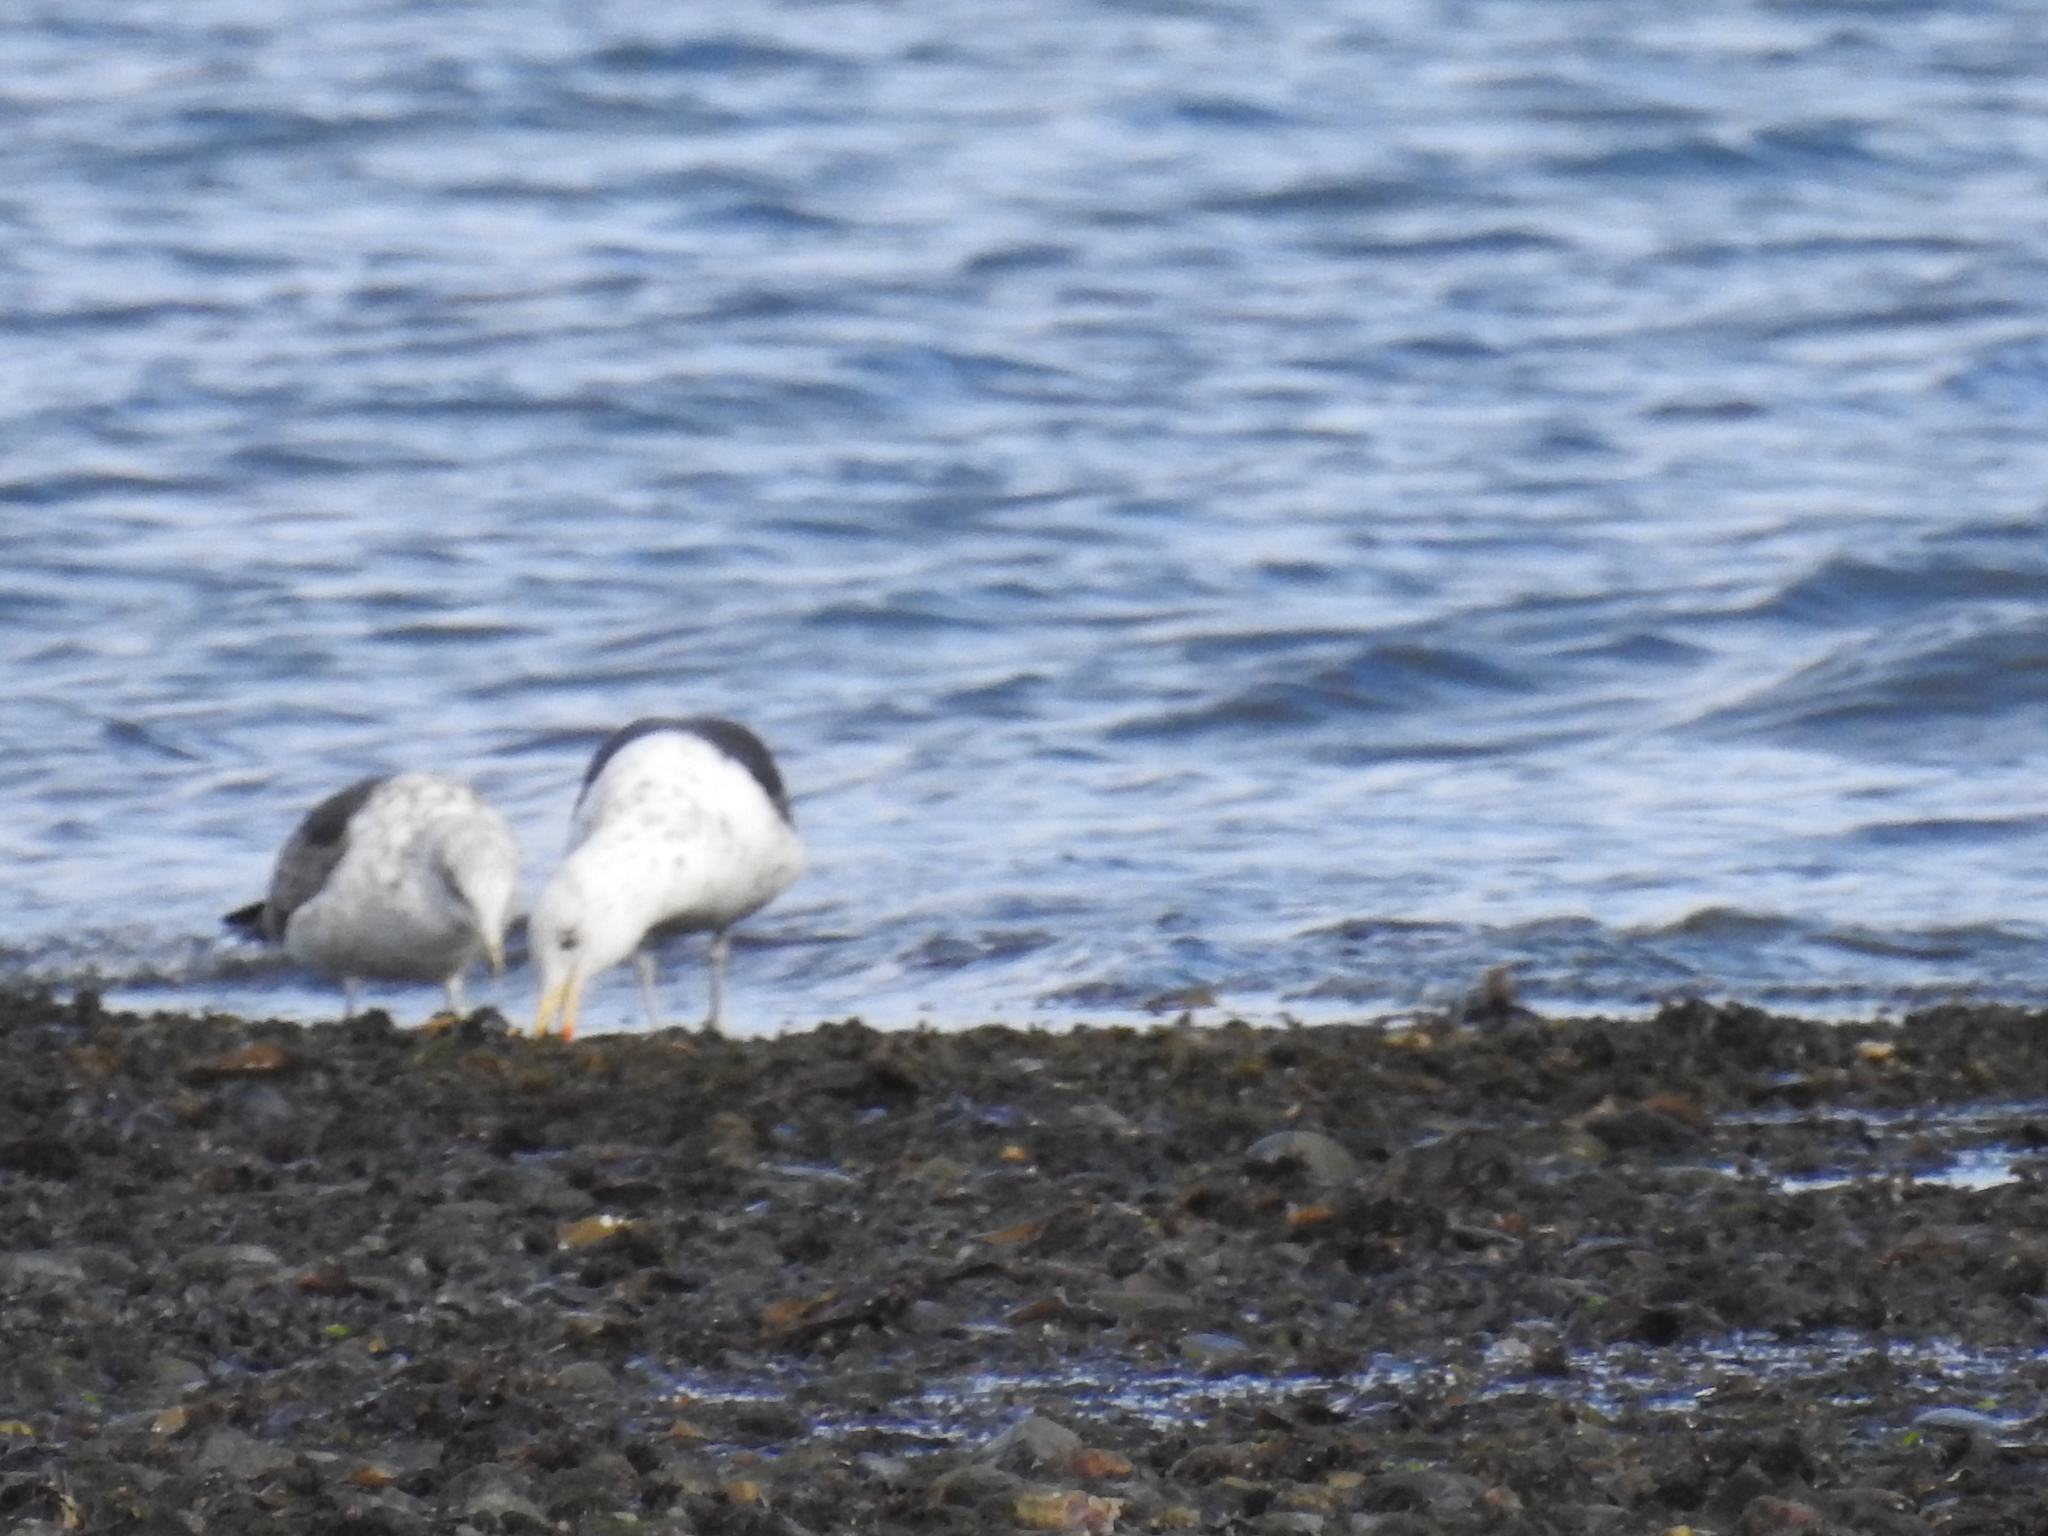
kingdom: Animalia
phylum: Chordata
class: Aves
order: Charadriiformes
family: Laridae
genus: Larus
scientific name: Larus dominicanus
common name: Kelp gull
